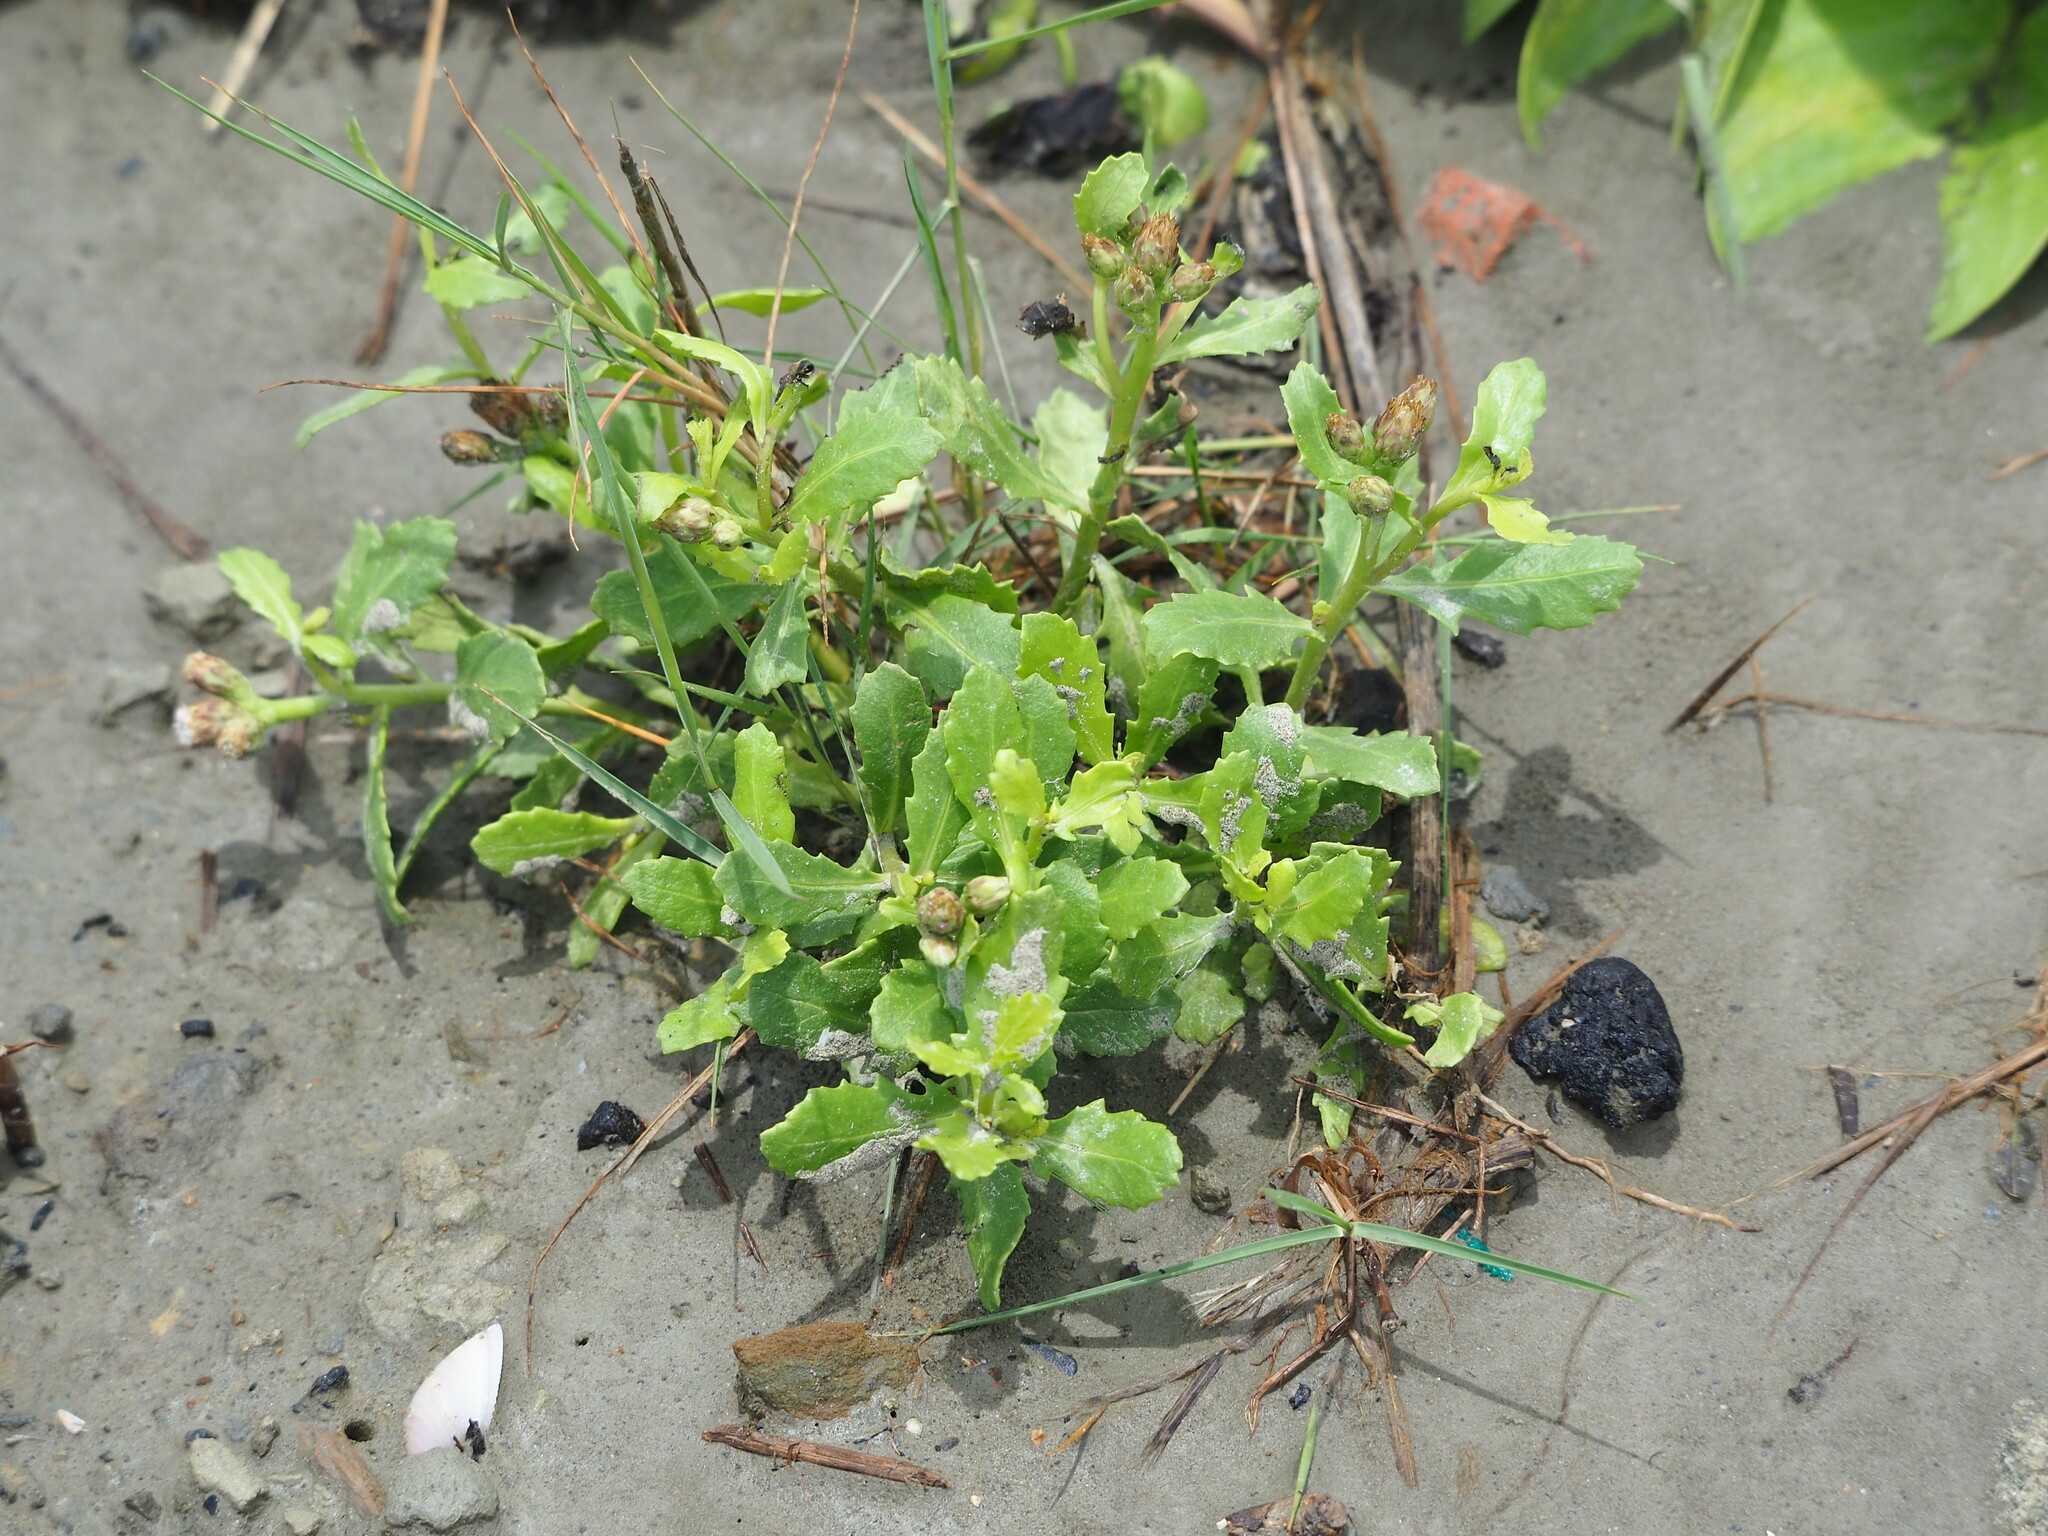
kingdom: Plantae
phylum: Tracheophyta
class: Magnoliopsida
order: Asterales
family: Asteraceae
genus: Pluchea
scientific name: Pluchea pteropoda
